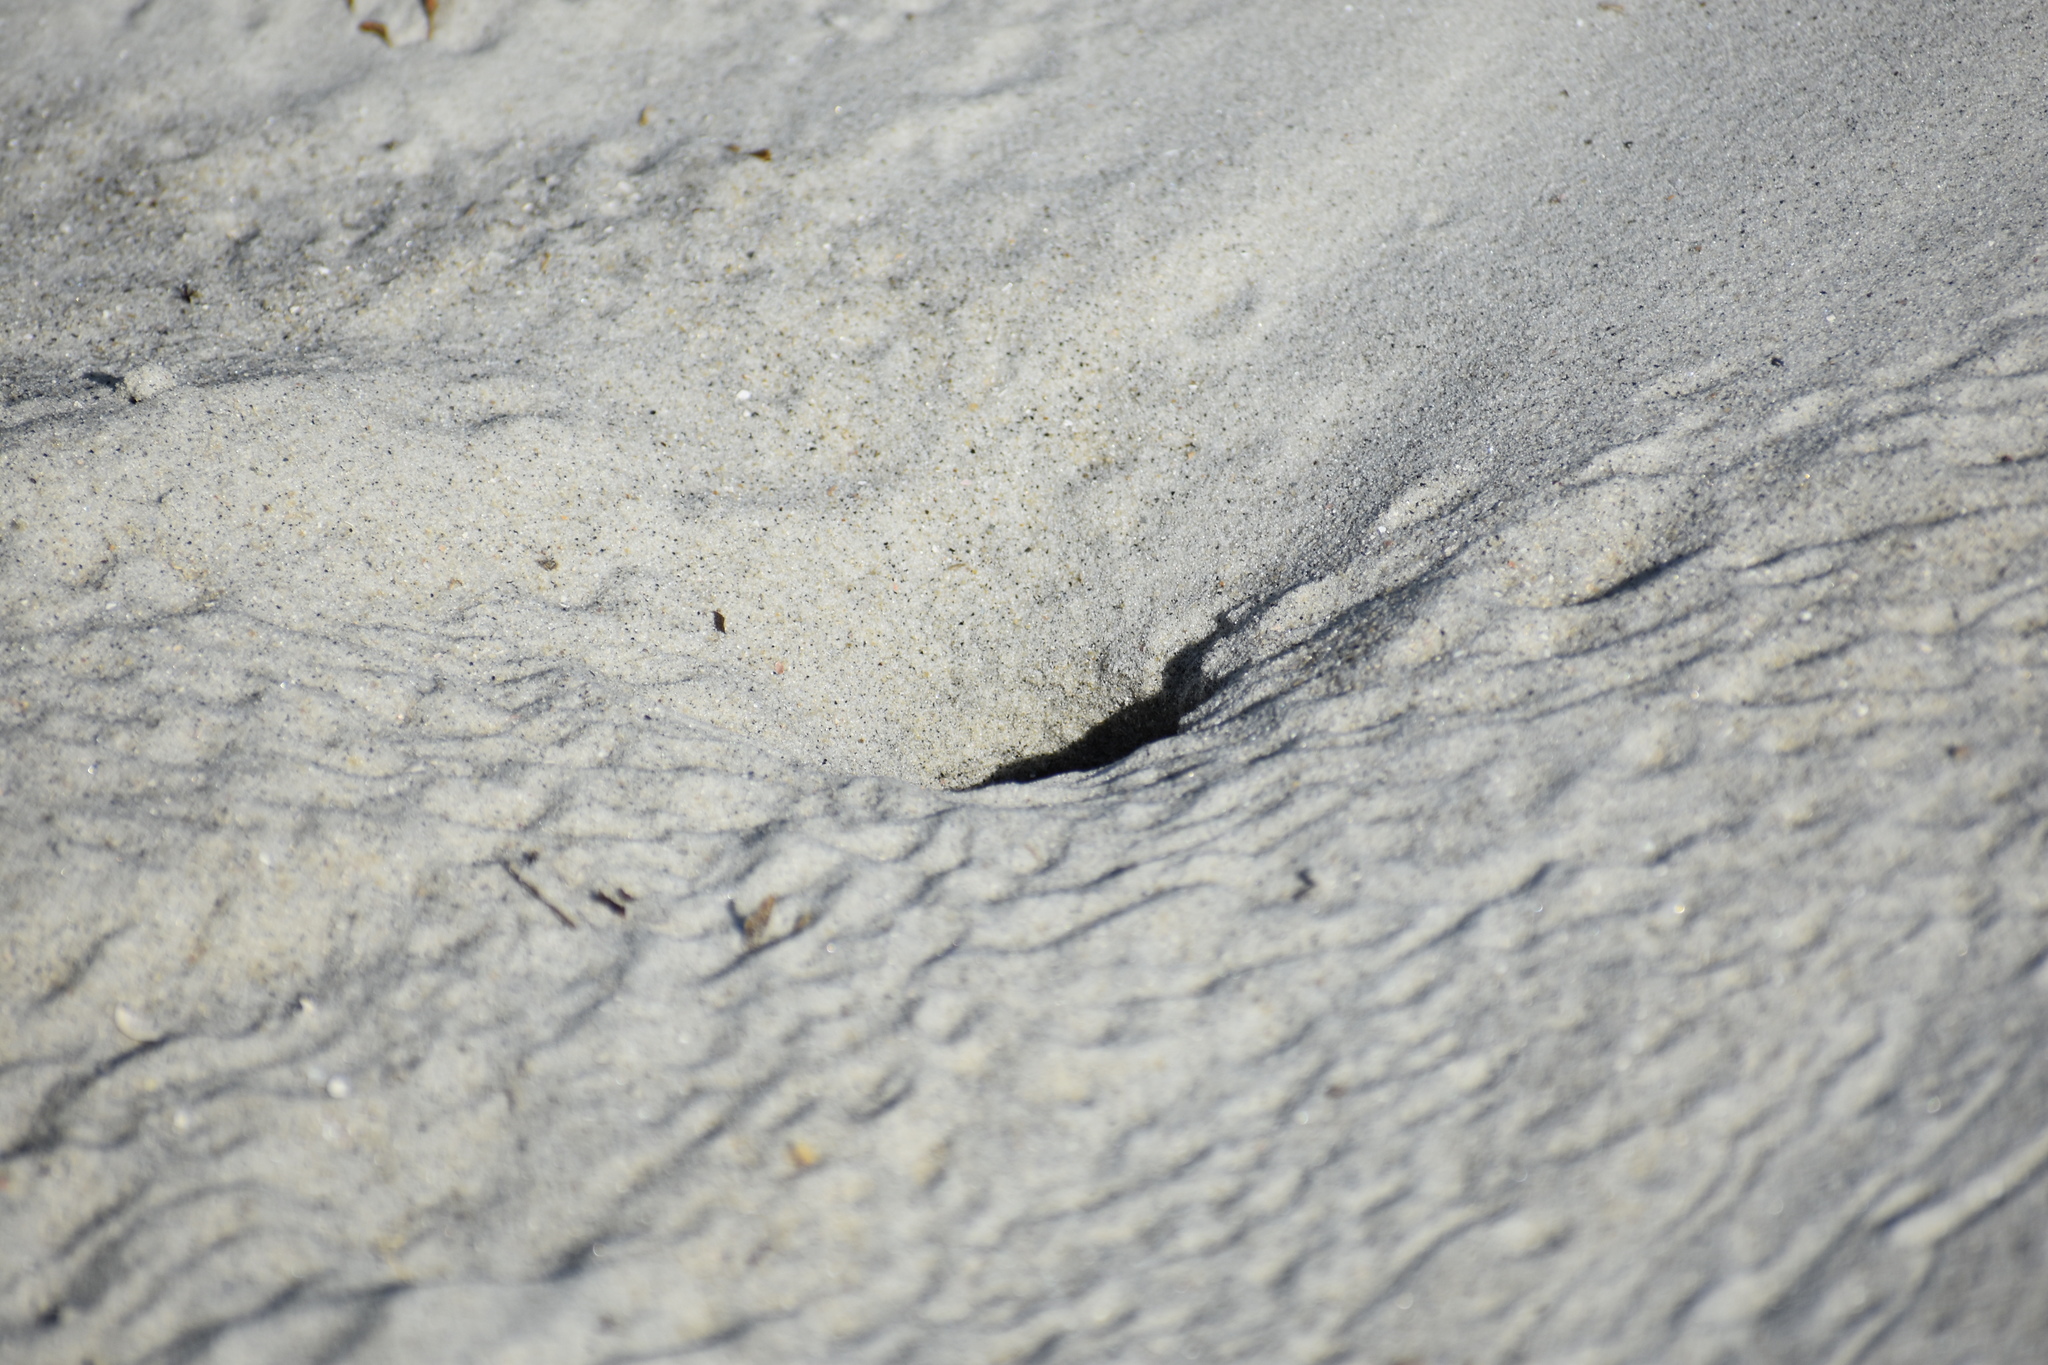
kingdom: Animalia
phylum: Arthropoda
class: Malacostraca
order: Decapoda
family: Ocypodidae
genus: Ocypode
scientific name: Ocypode quadrata
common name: Ghost crab
